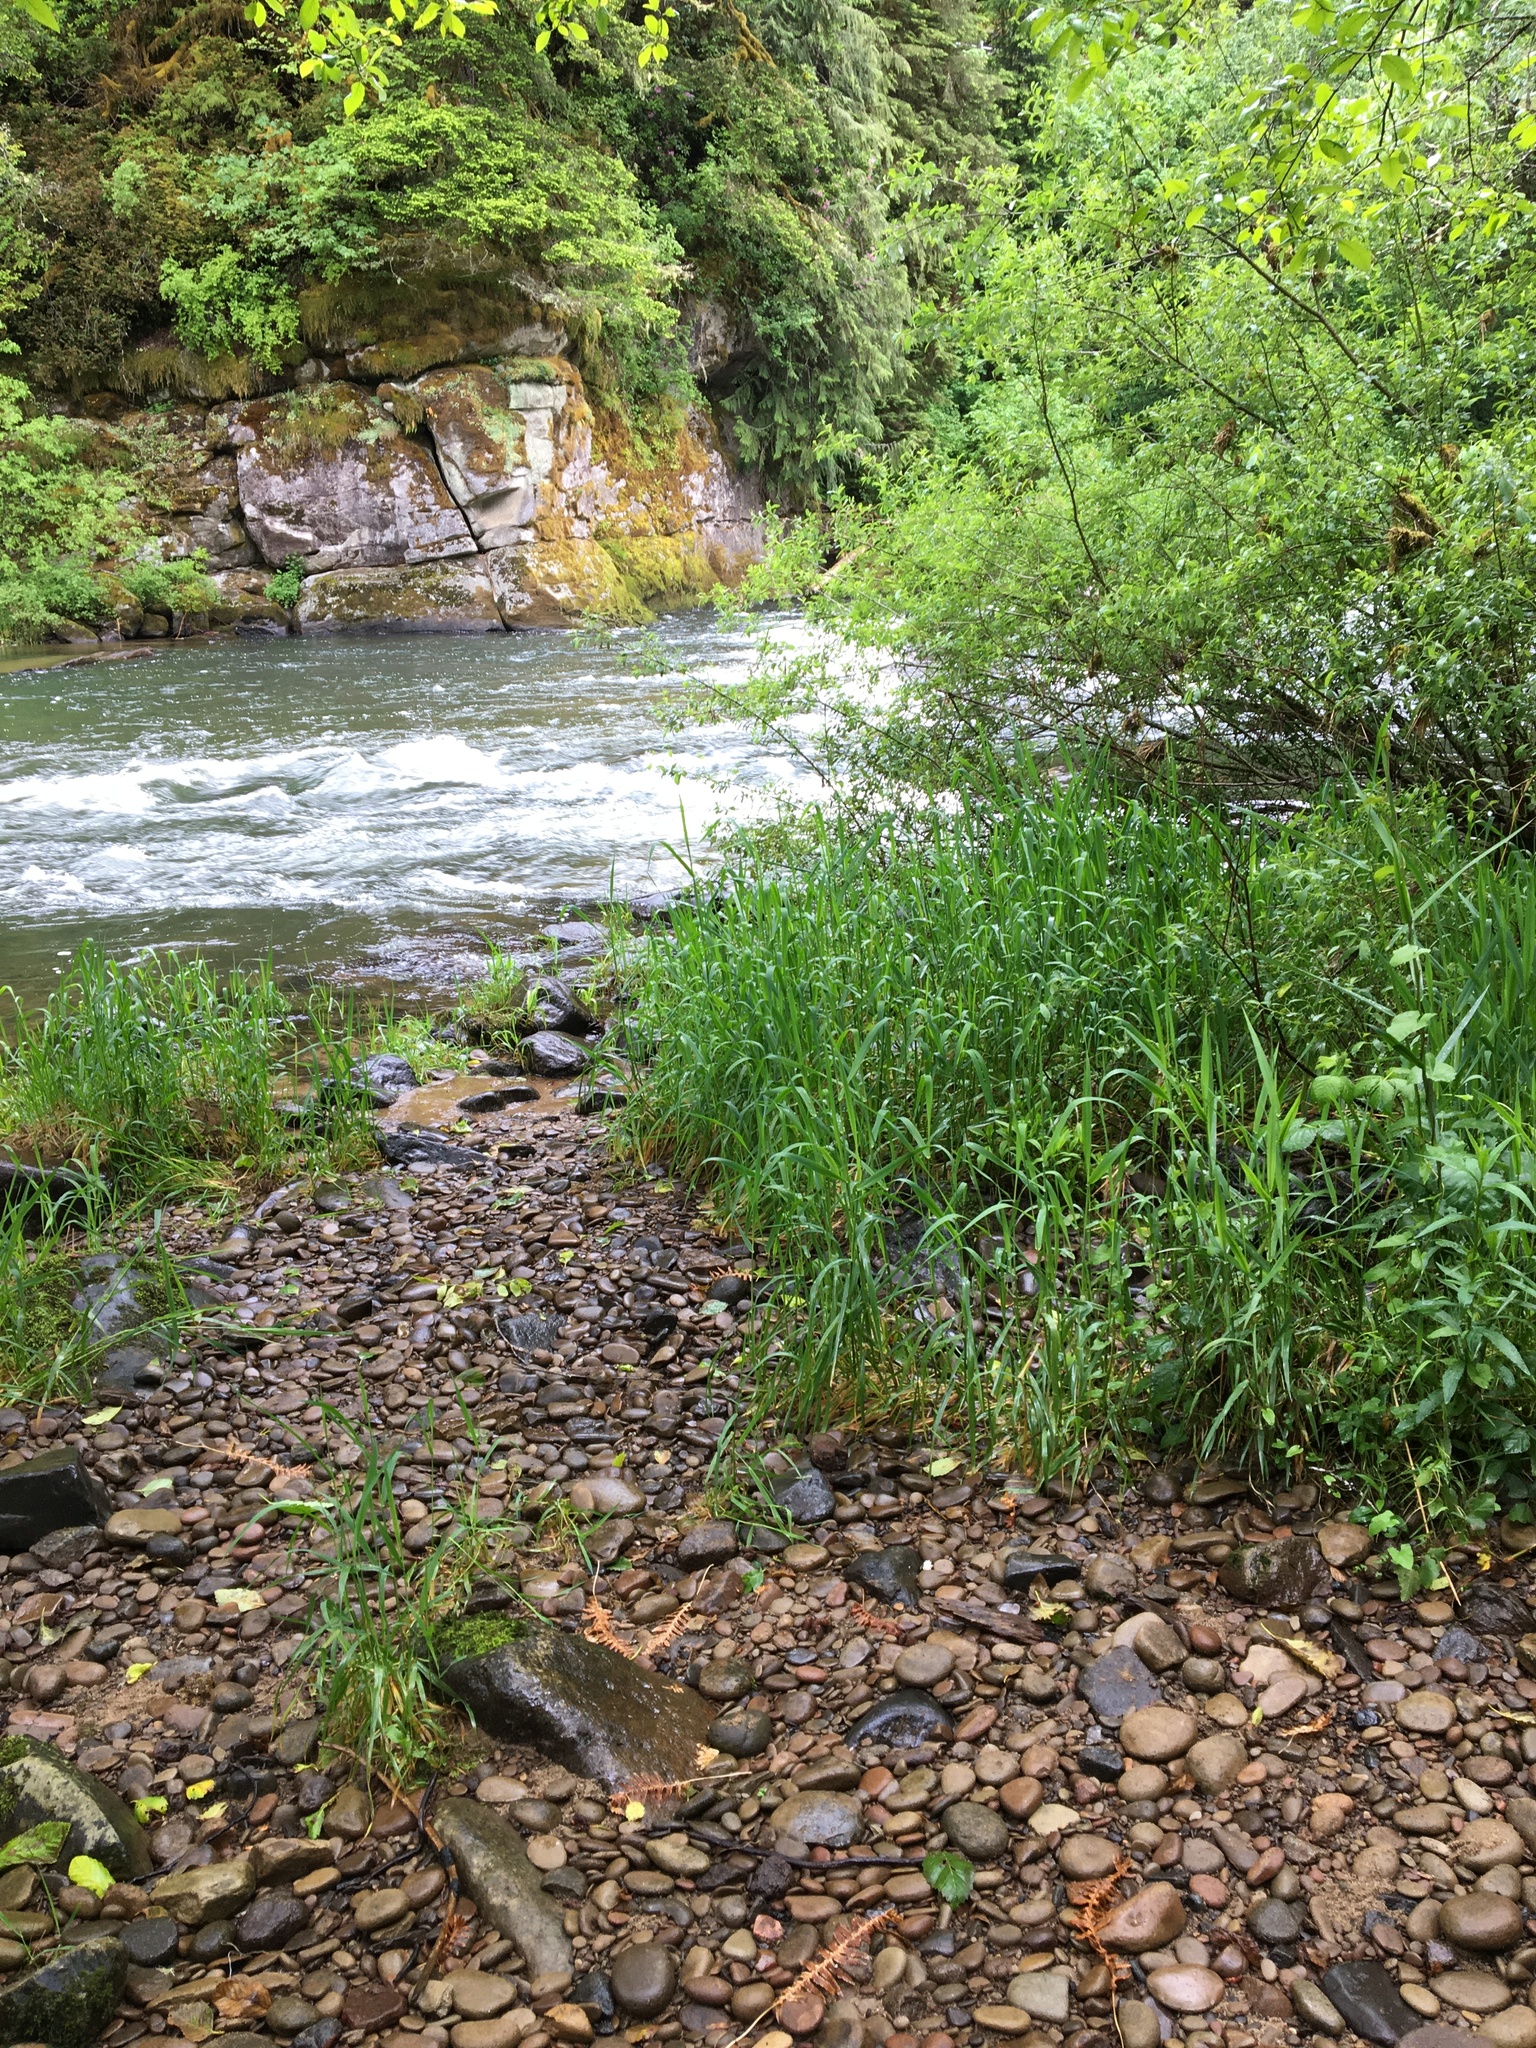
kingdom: Animalia
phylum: Mollusca
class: Bivalvia
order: Unionida
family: Margaritiferidae
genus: Margaritifera
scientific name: Margaritifera falcata
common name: Western pearlshell
